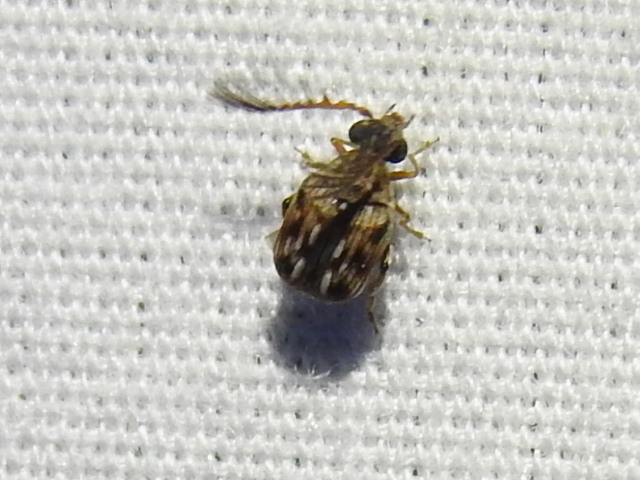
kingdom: Animalia
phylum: Arthropoda
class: Insecta
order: Coleoptera
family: Chrysomelidae
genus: Megacerus
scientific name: Megacerus cubiculus
